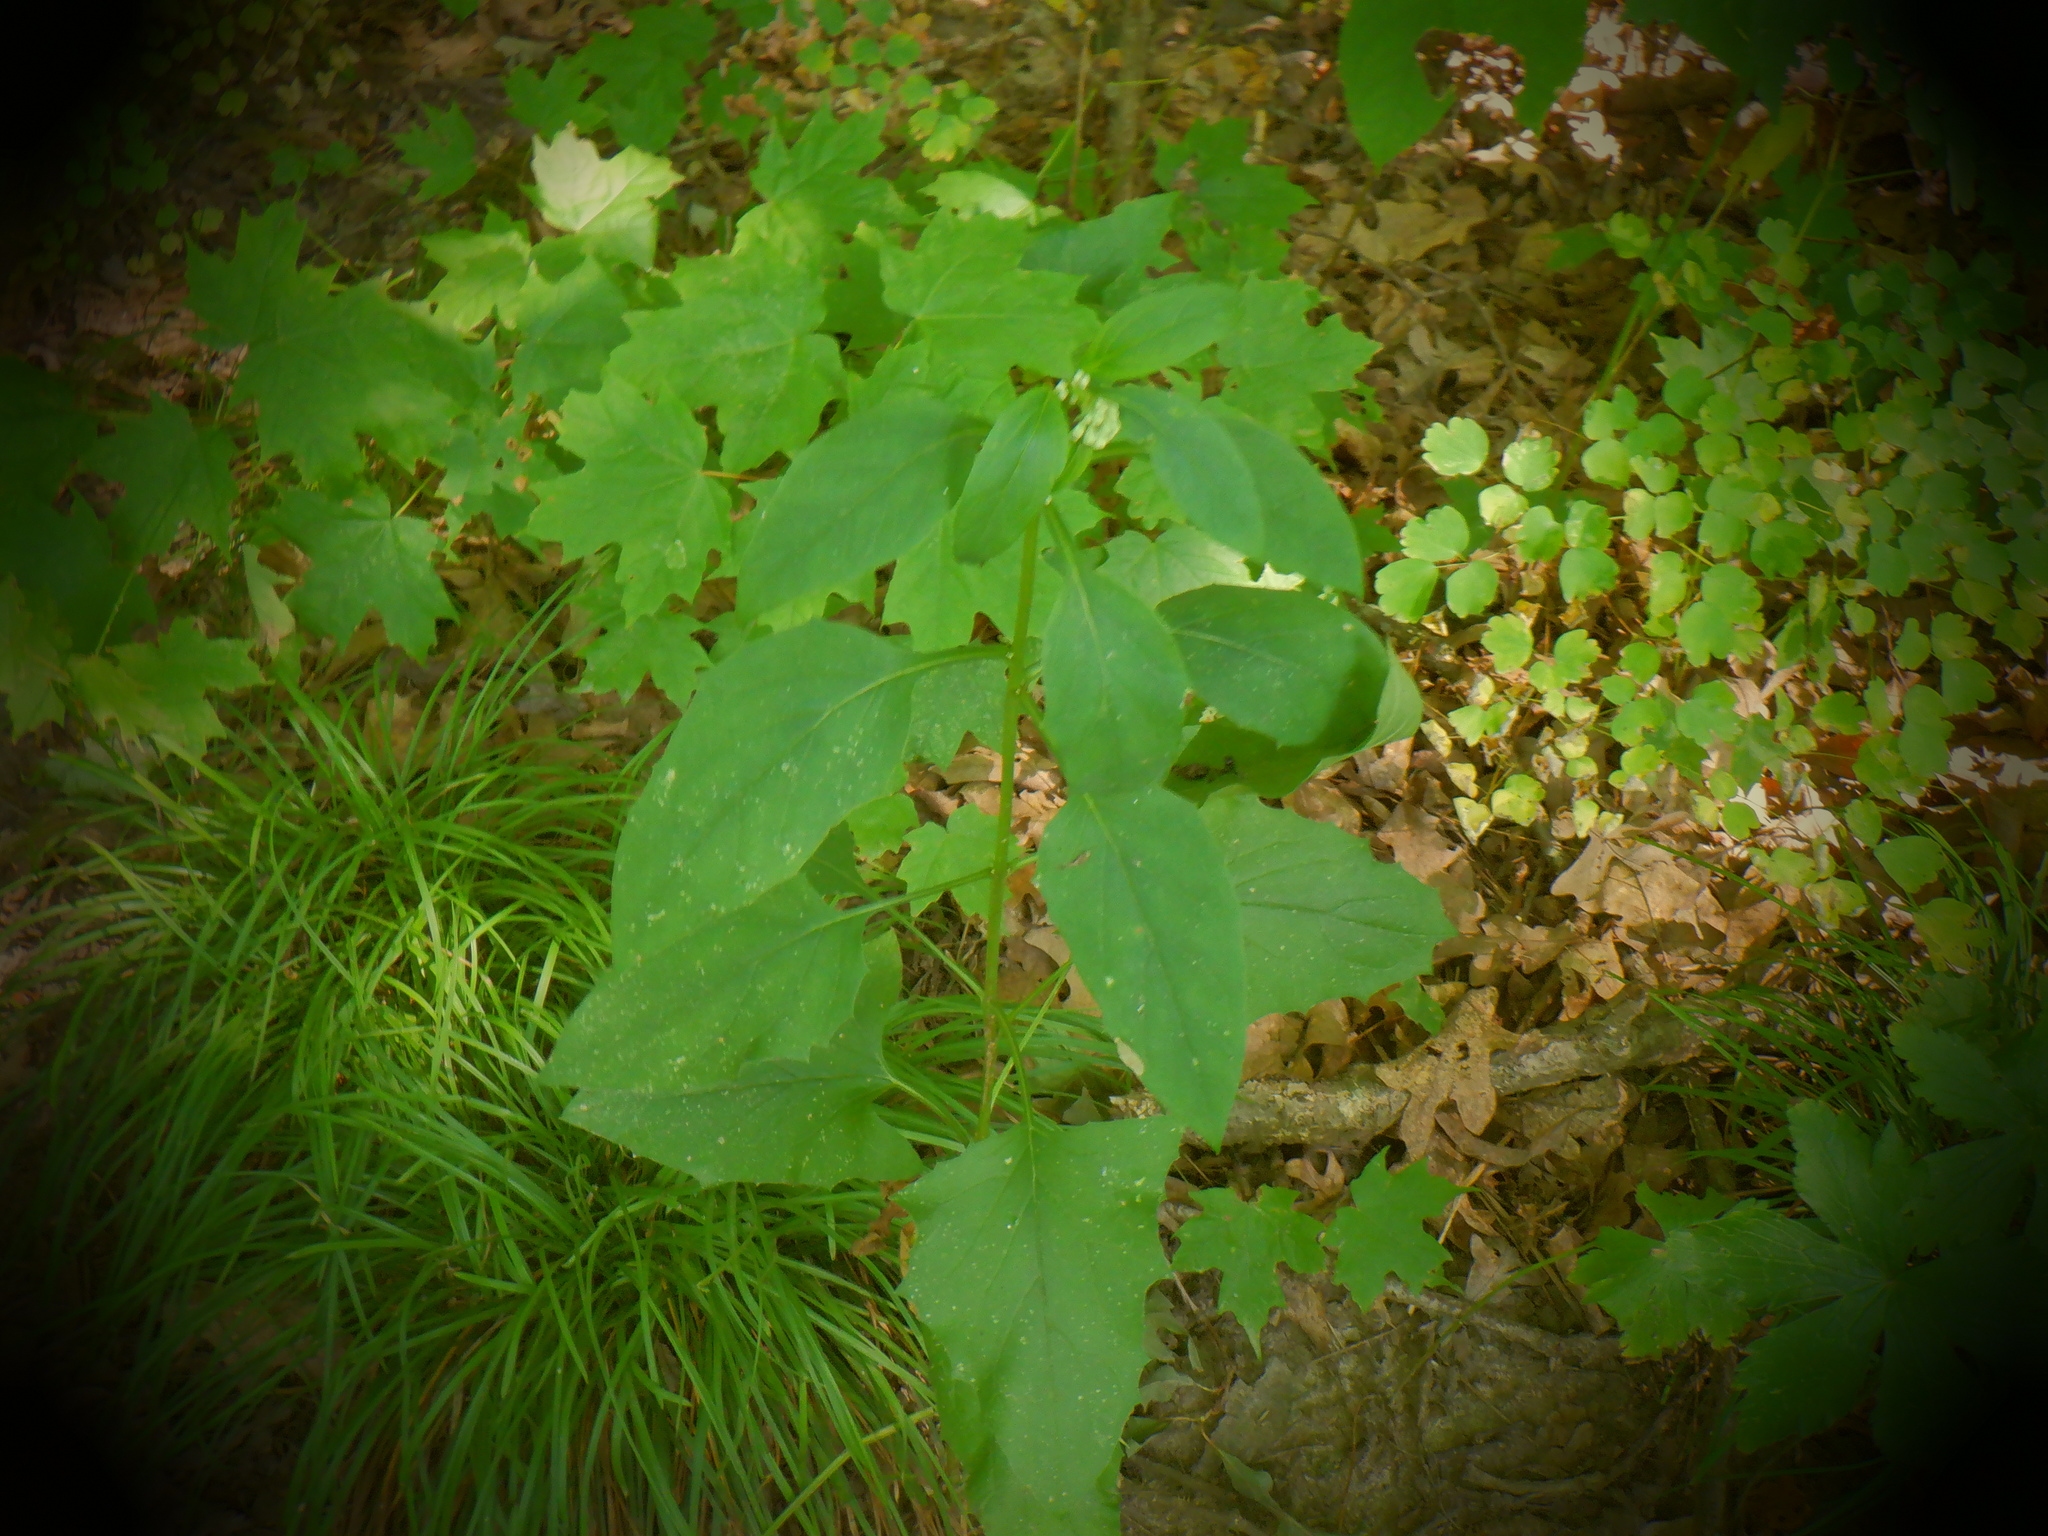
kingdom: Plantae
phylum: Tracheophyta
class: Magnoliopsida
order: Asterales
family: Asteraceae
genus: Nabalus
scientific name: Nabalus albus
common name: White rattlesnakeroot
